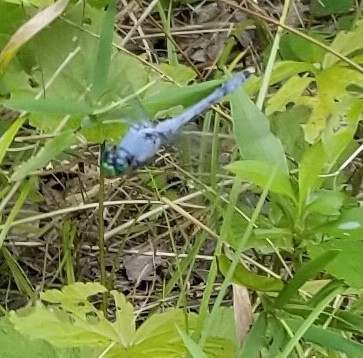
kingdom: Animalia
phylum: Arthropoda
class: Insecta
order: Odonata
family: Libellulidae
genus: Erythemis
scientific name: Erythemis simplicicollis
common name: Eastern pondhawk
